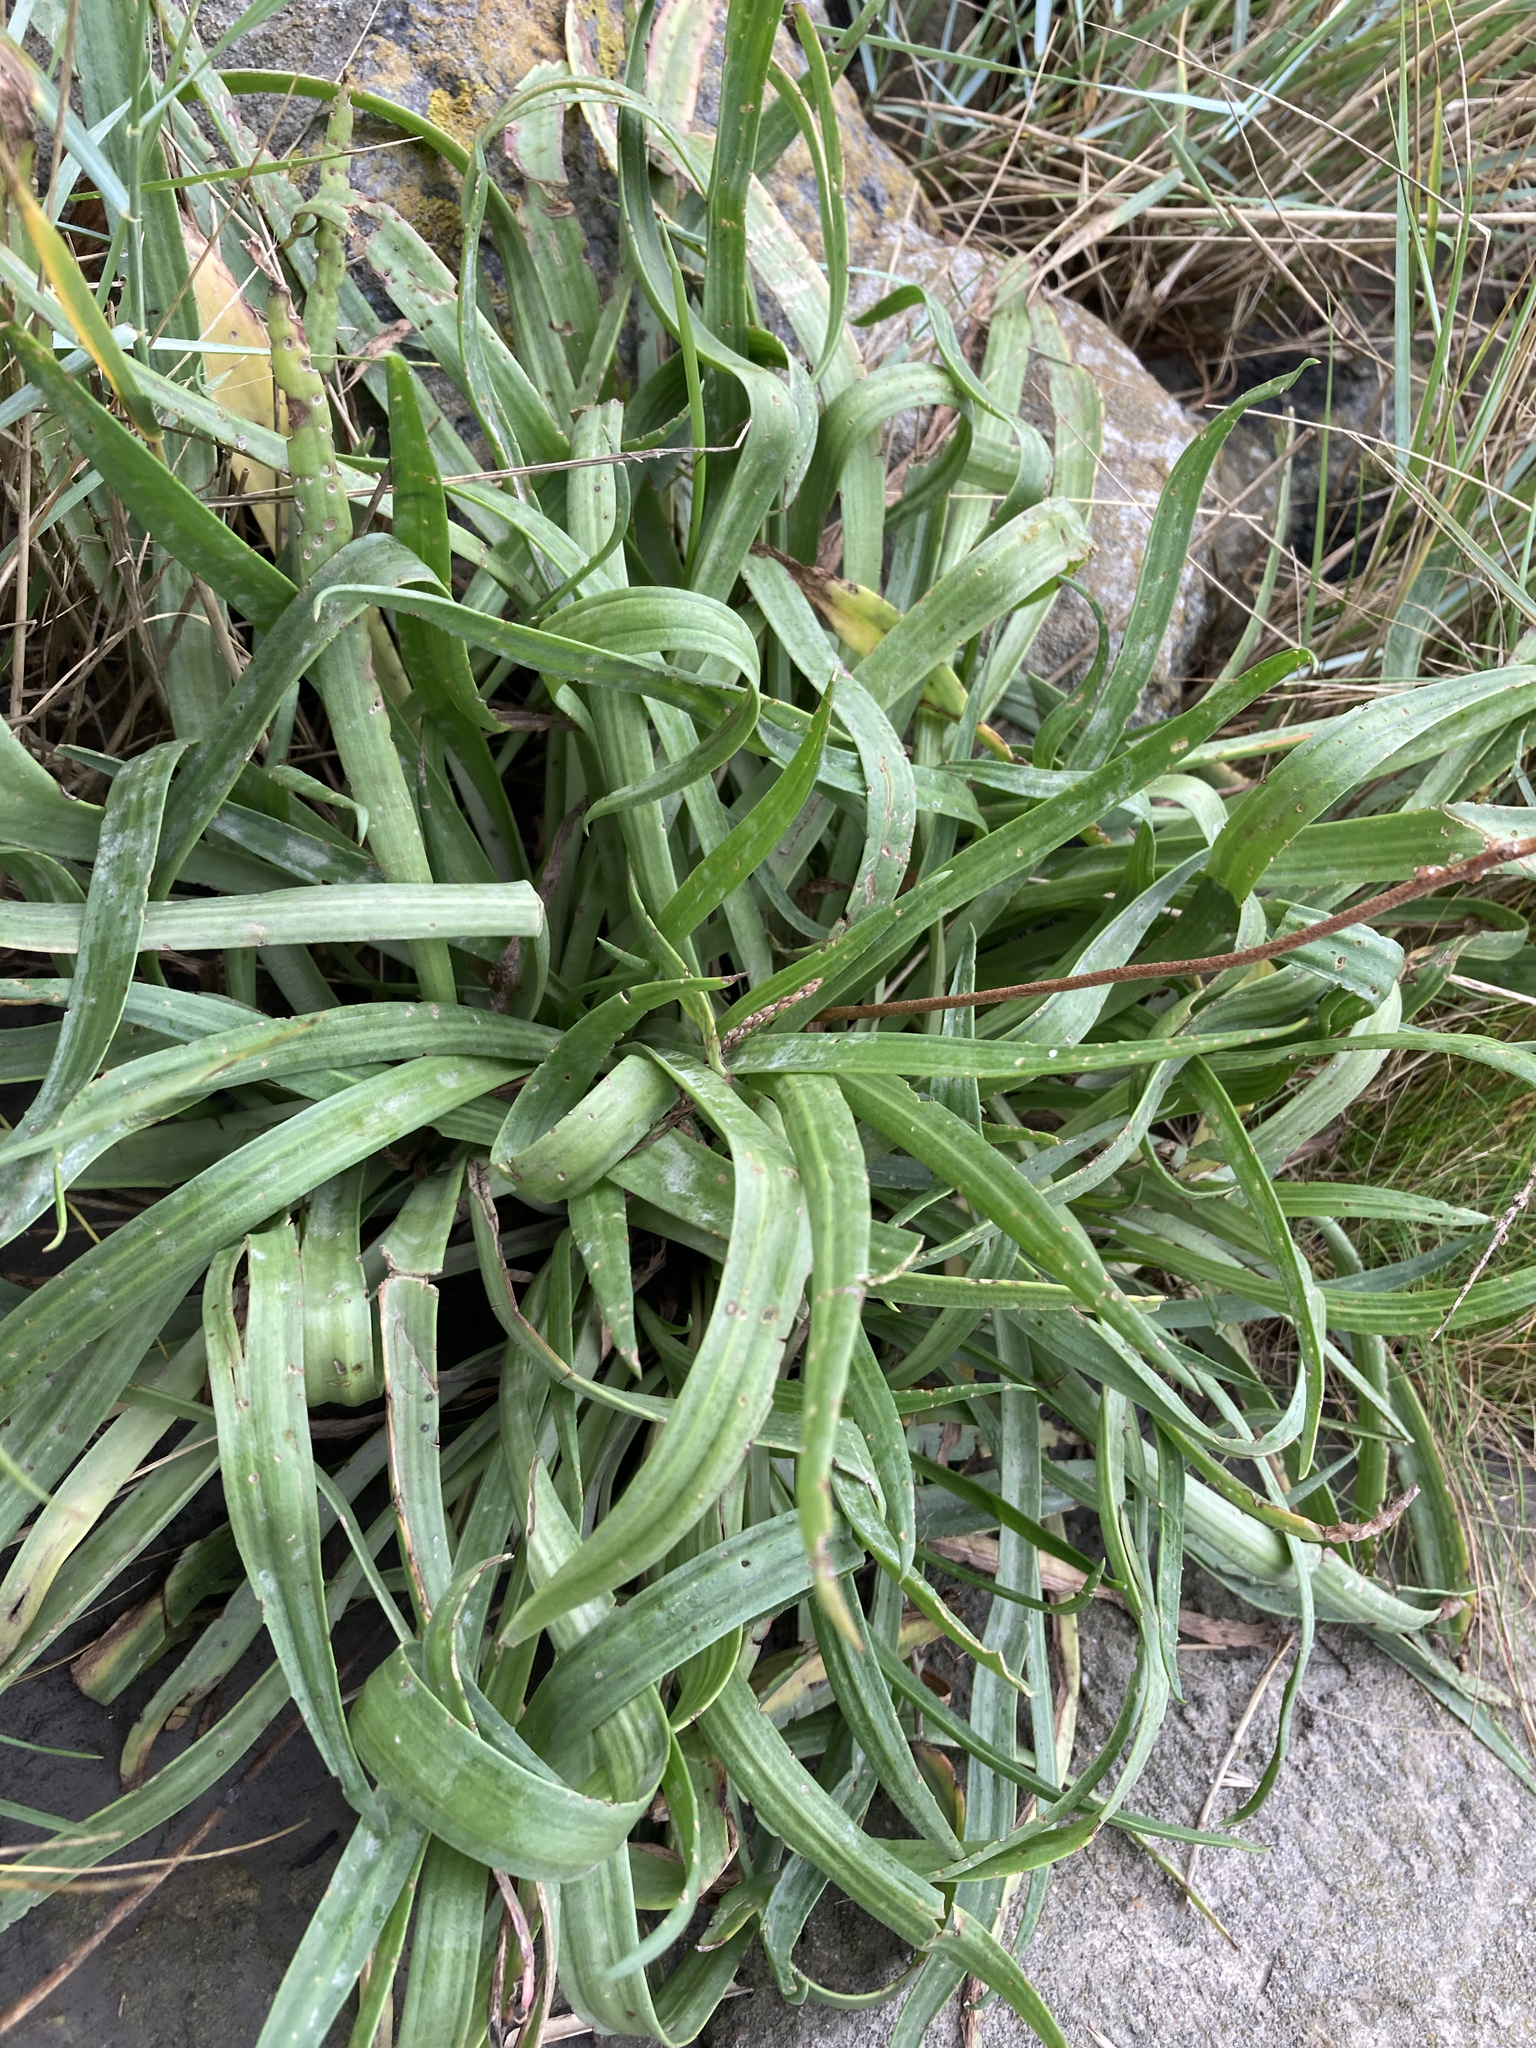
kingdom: Plantae
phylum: Tracheophyta
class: Magnoliopsida
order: Lamiales
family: Plantaginaceae
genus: Plantago
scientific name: Plantago maritima
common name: Sea plantain
